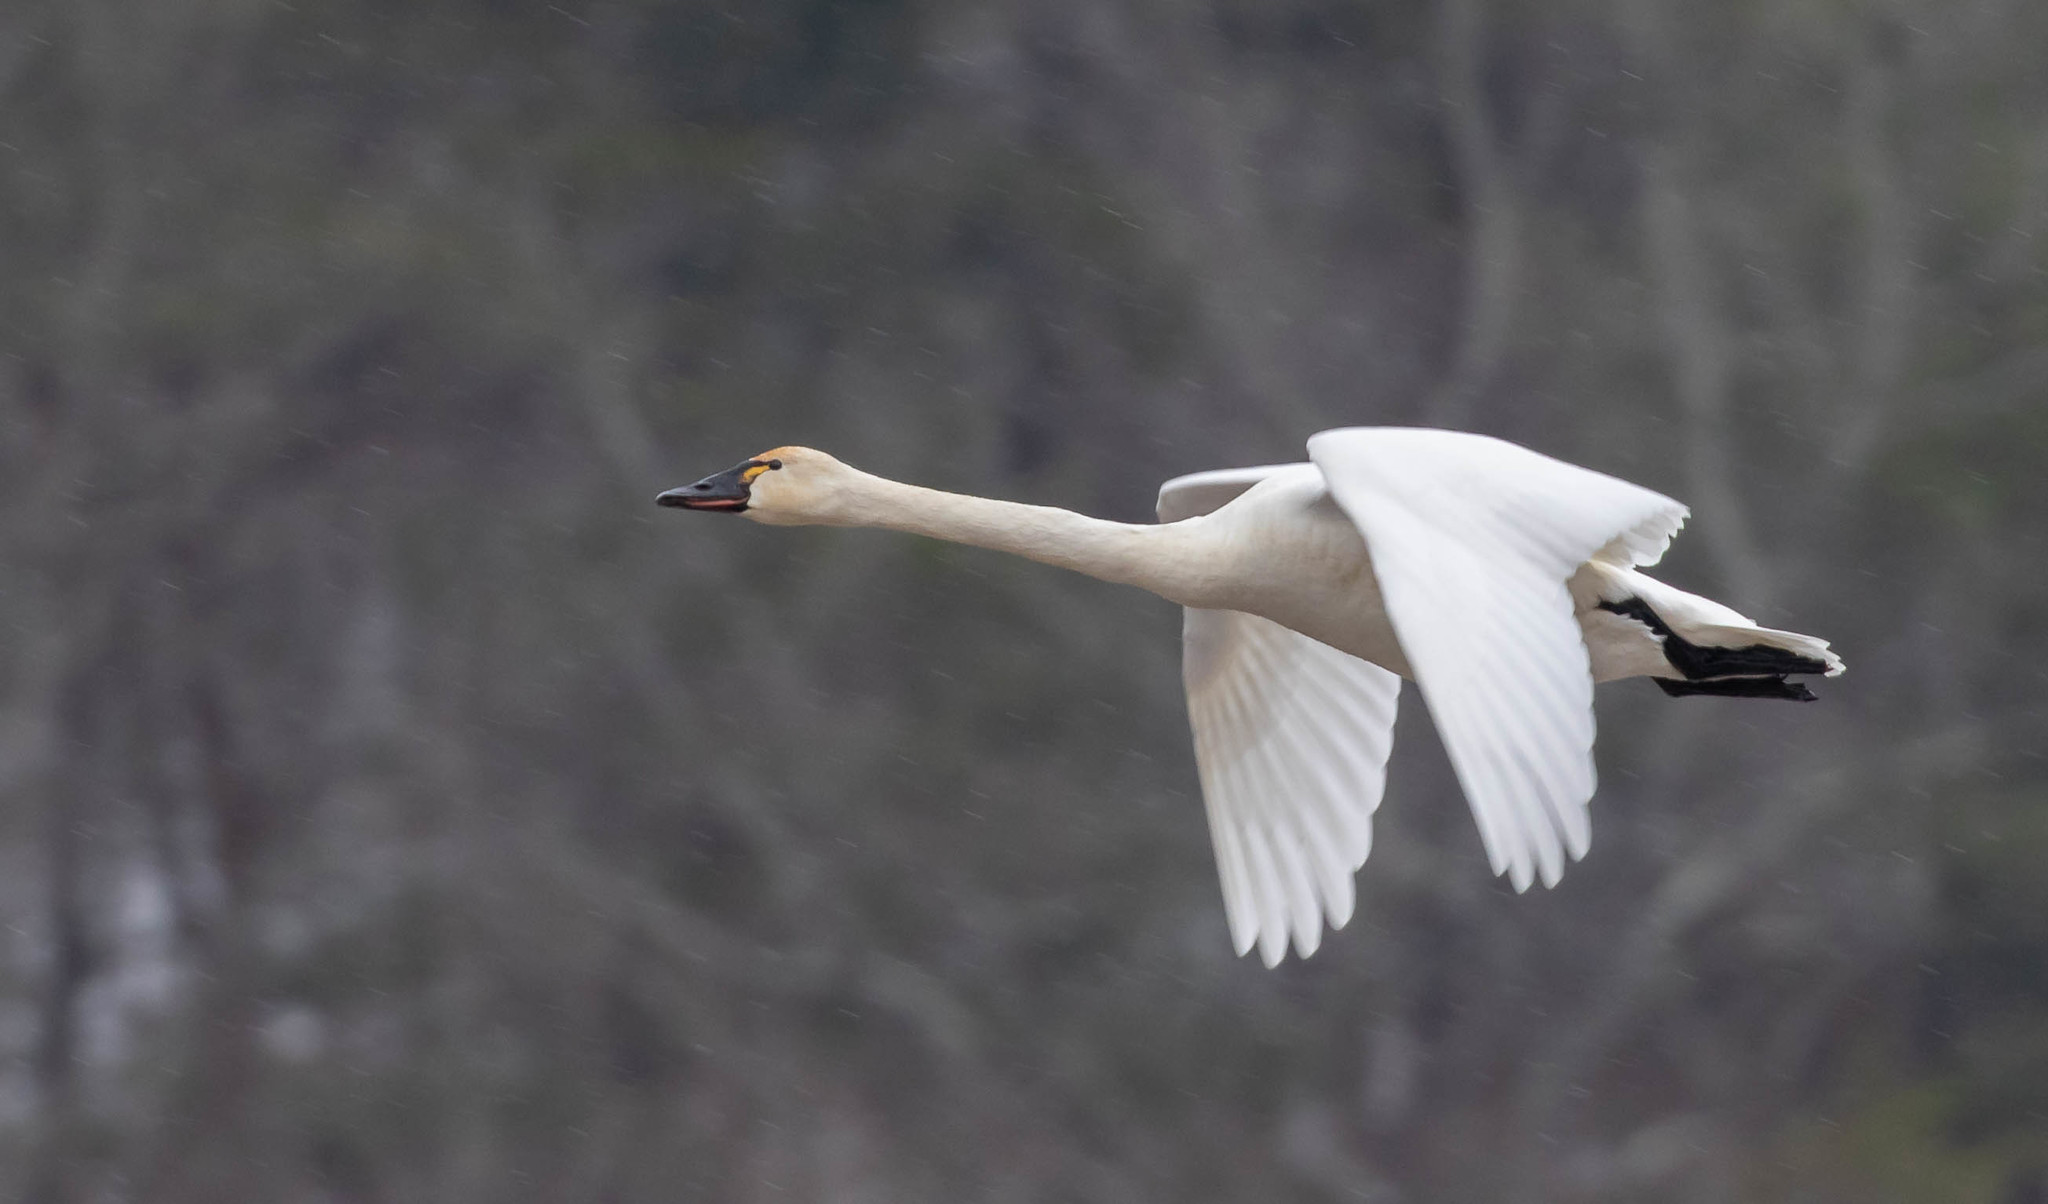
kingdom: Animalia
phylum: Chordata
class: Aves
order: Anseriformes
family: Anatidae
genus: Cygnus
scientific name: Cygnus columbianus
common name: Tundra swan
